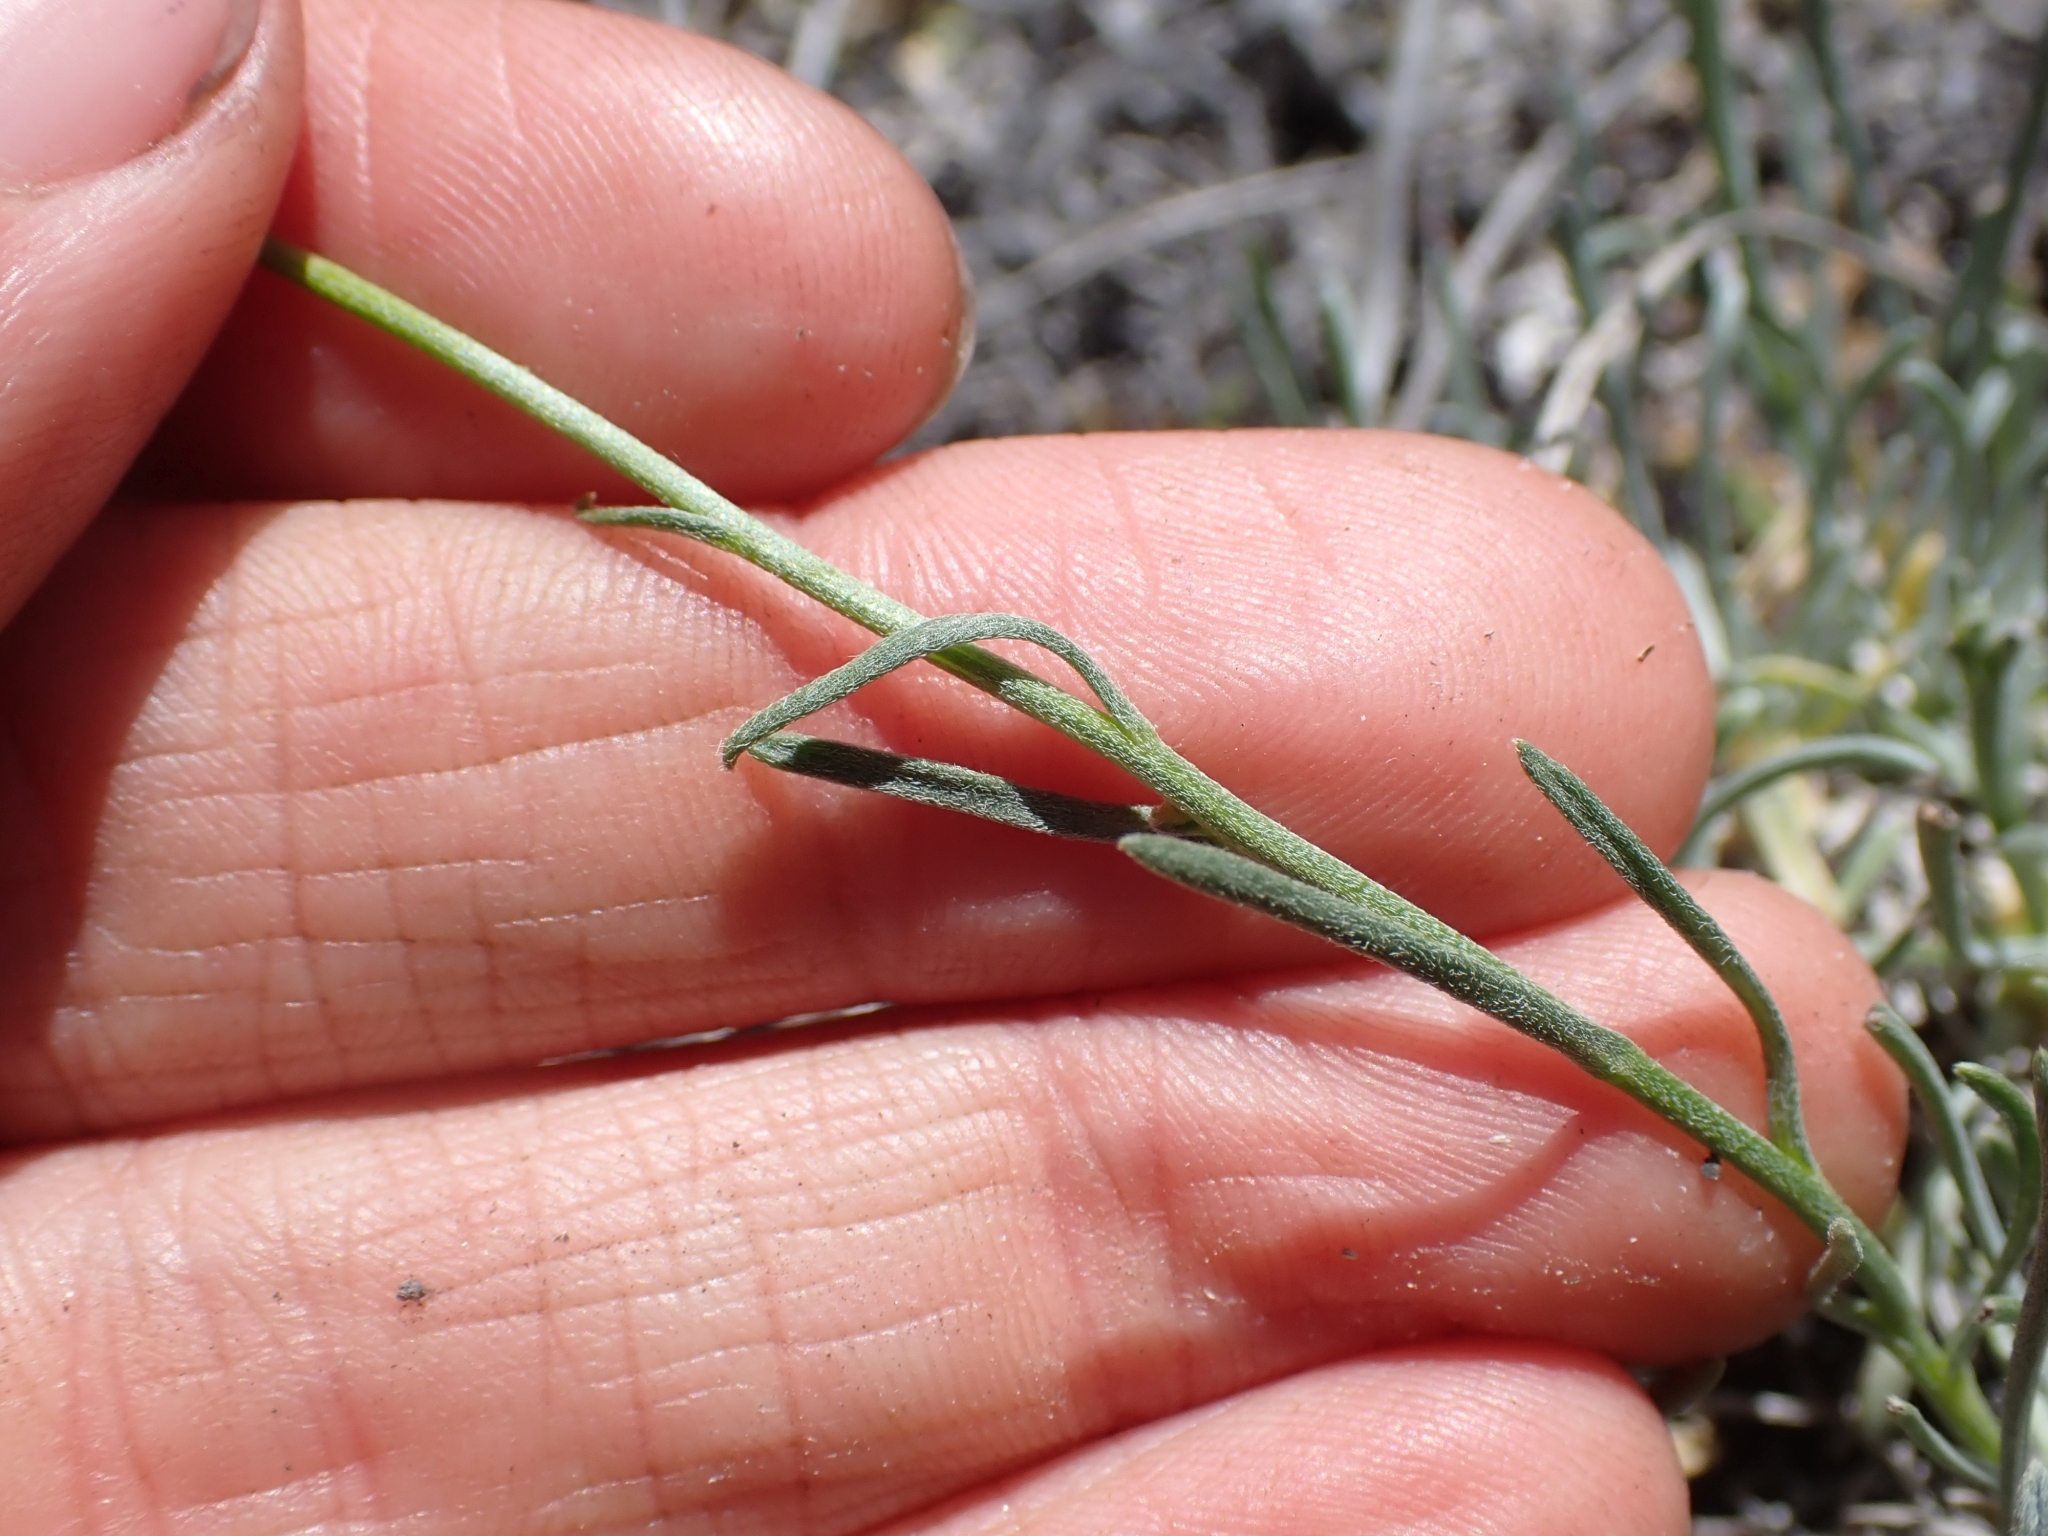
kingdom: Plantae
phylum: Tracheophyta
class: Magnoliopsida
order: Asterales
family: Asteraceae
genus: Erigeron
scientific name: Erigeron linearis
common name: Desert yellow fleabane
